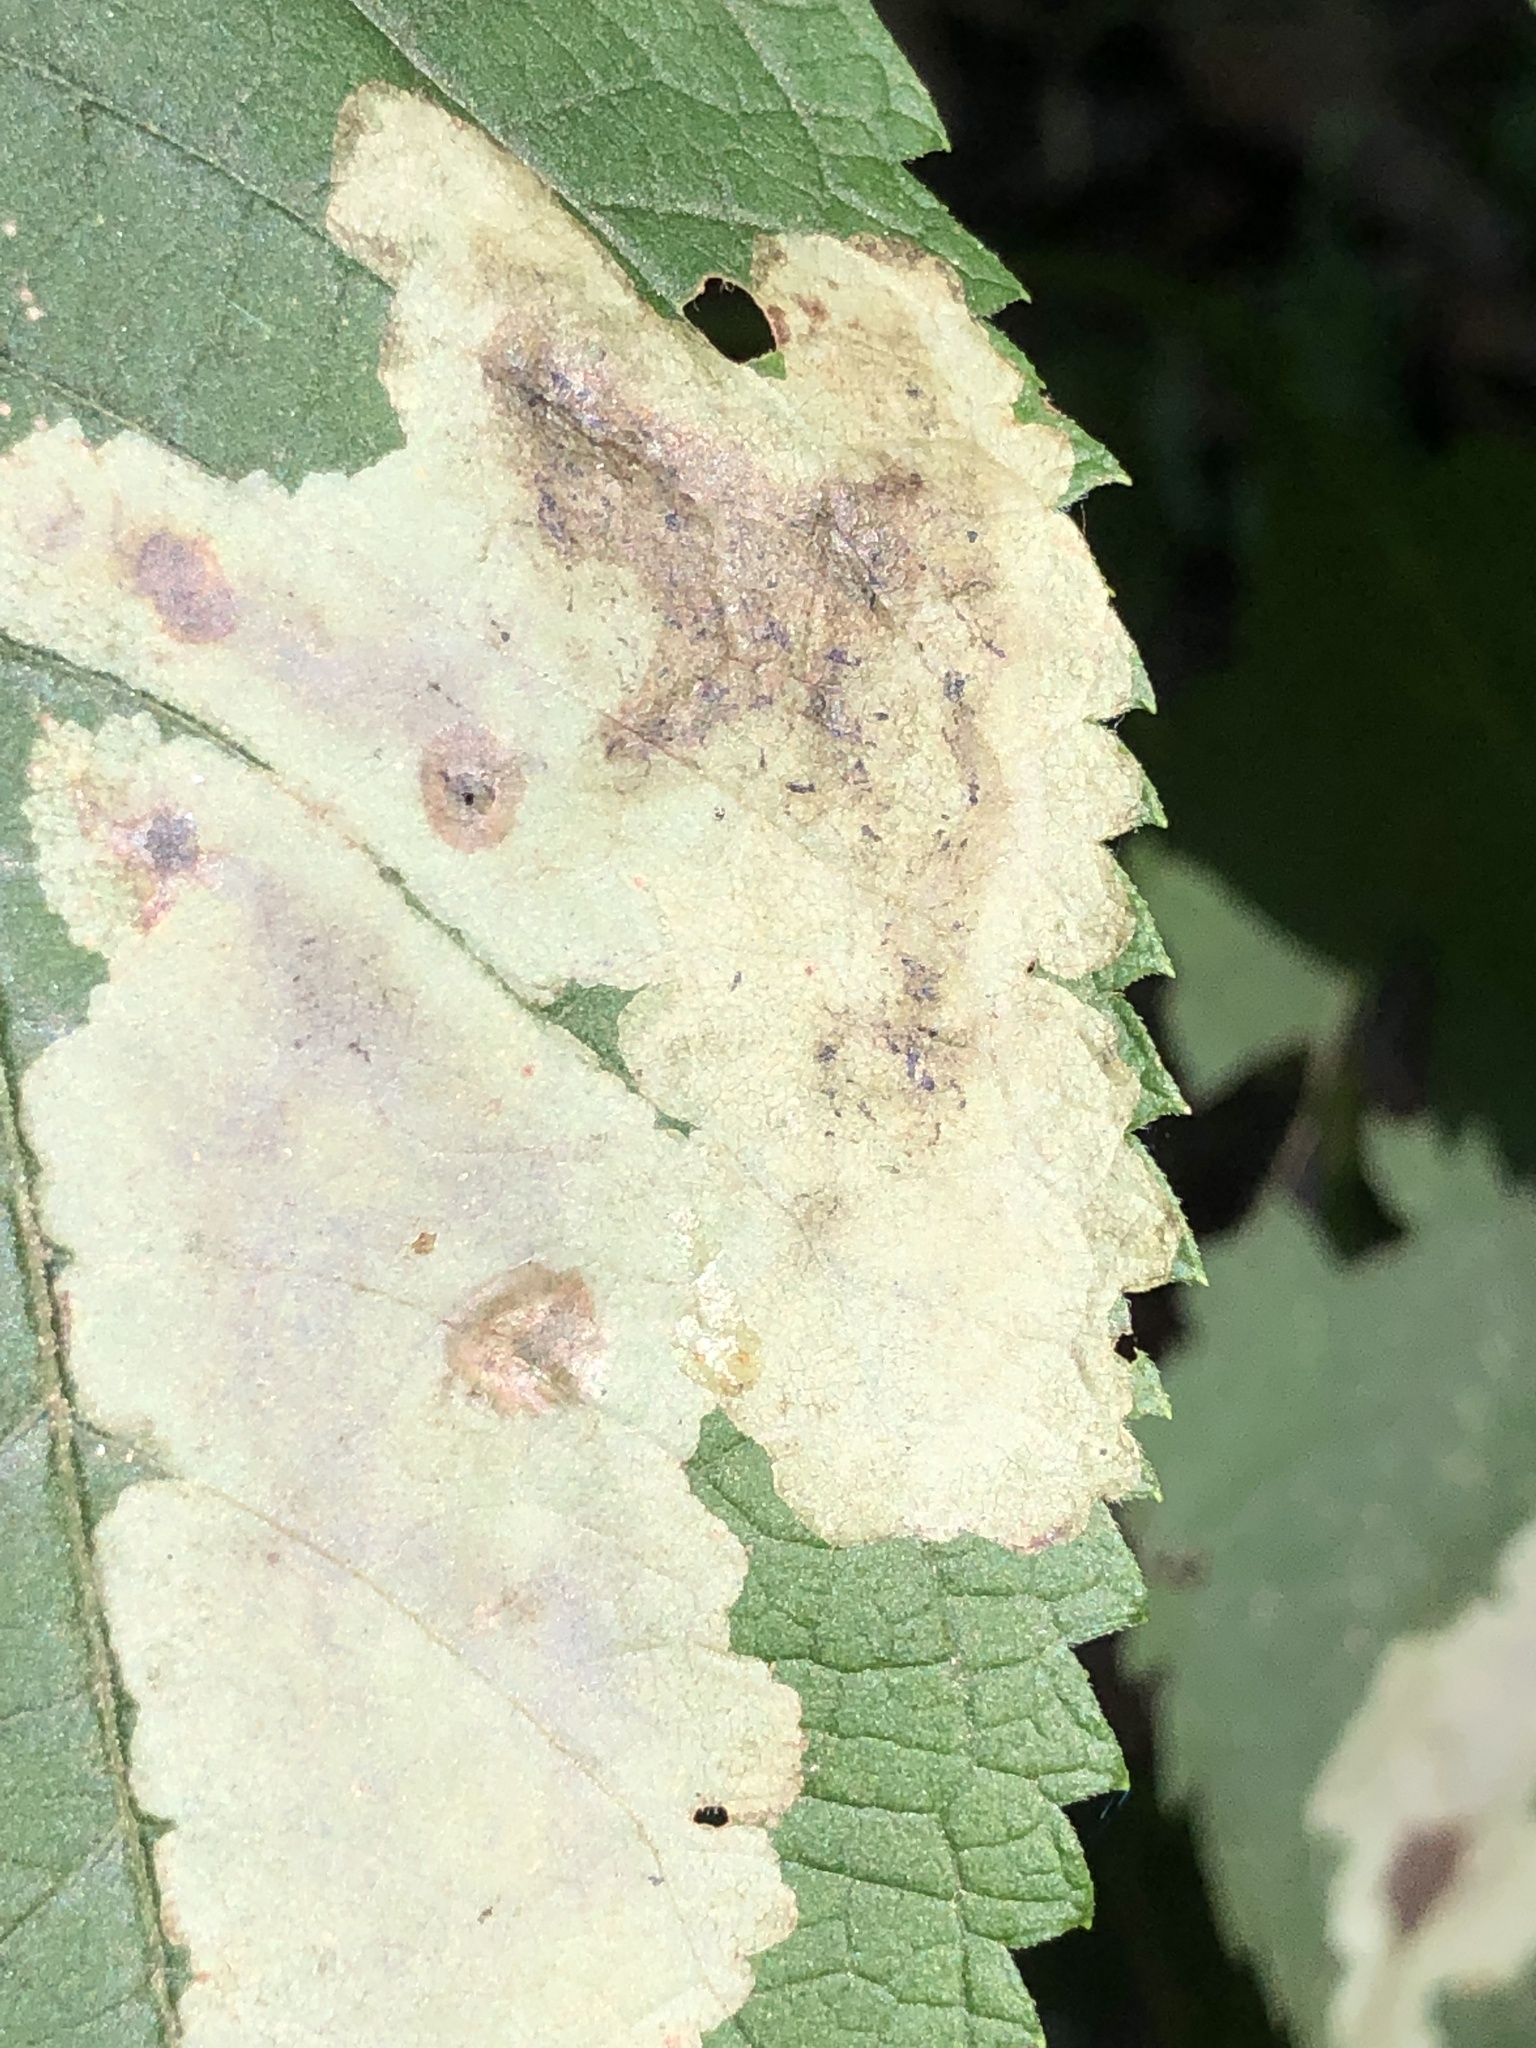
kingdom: Animalia
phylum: Arthropoda
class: Insecta
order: Diptera
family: Agromyzidae
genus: Calycomyza
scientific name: Calycomyza flavinotum
